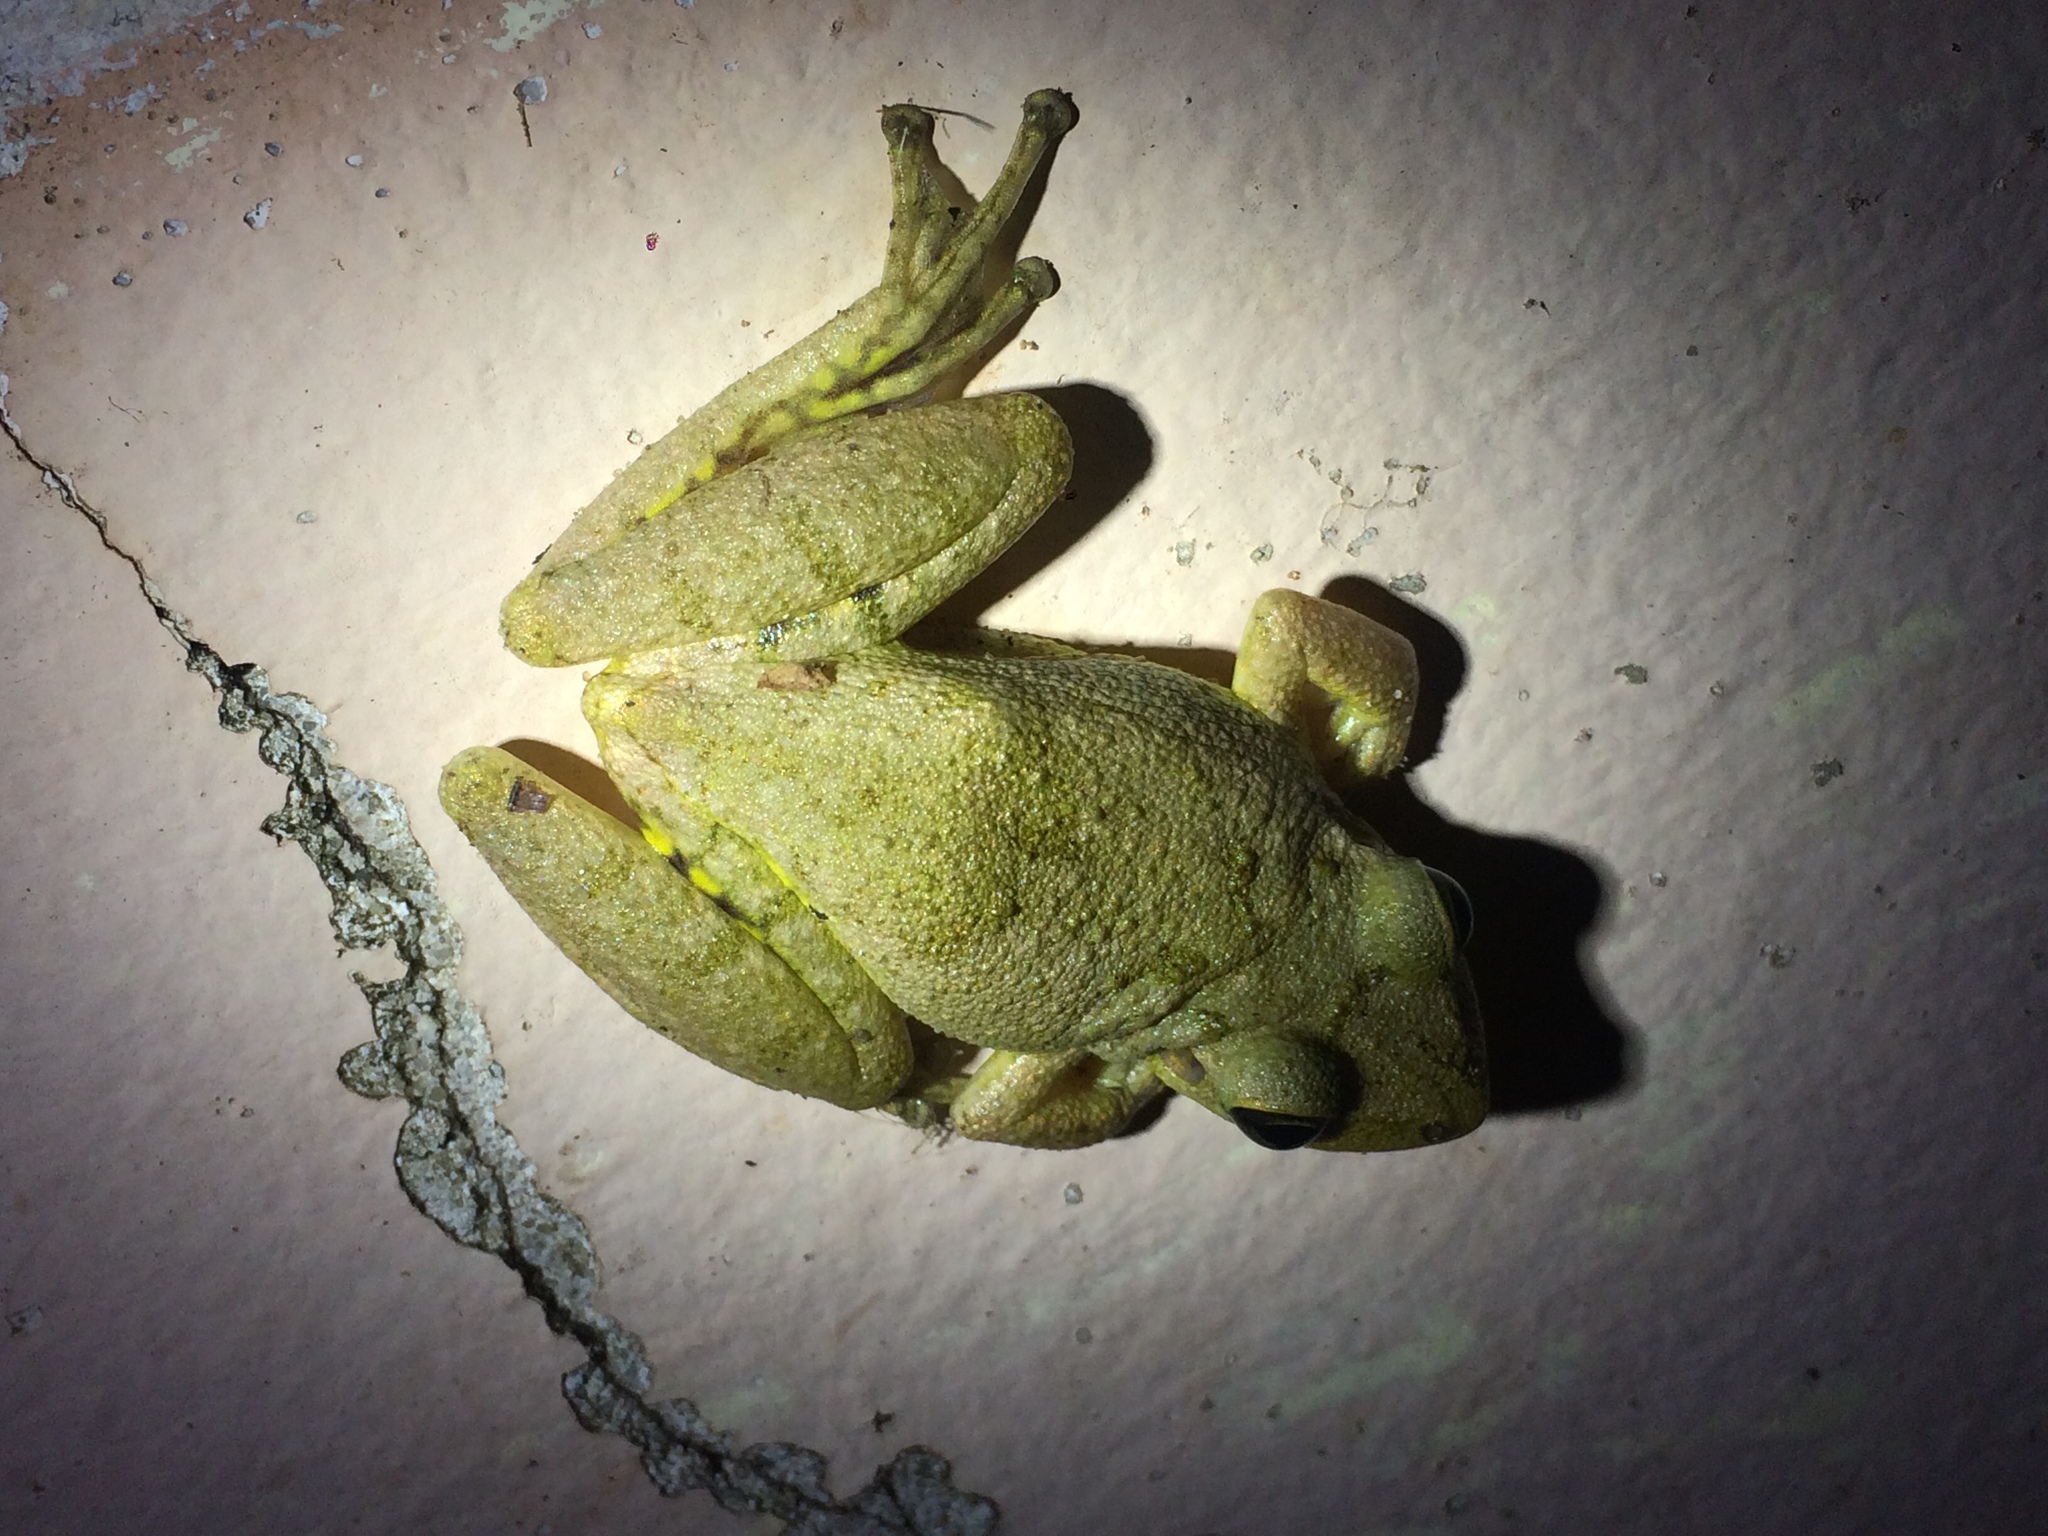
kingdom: Animalia
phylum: Chordata
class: Amphibia
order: Anura
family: Hylidae
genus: Scinax
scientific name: Scinax fuscovarius
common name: Fuscous-blotched treefrog
